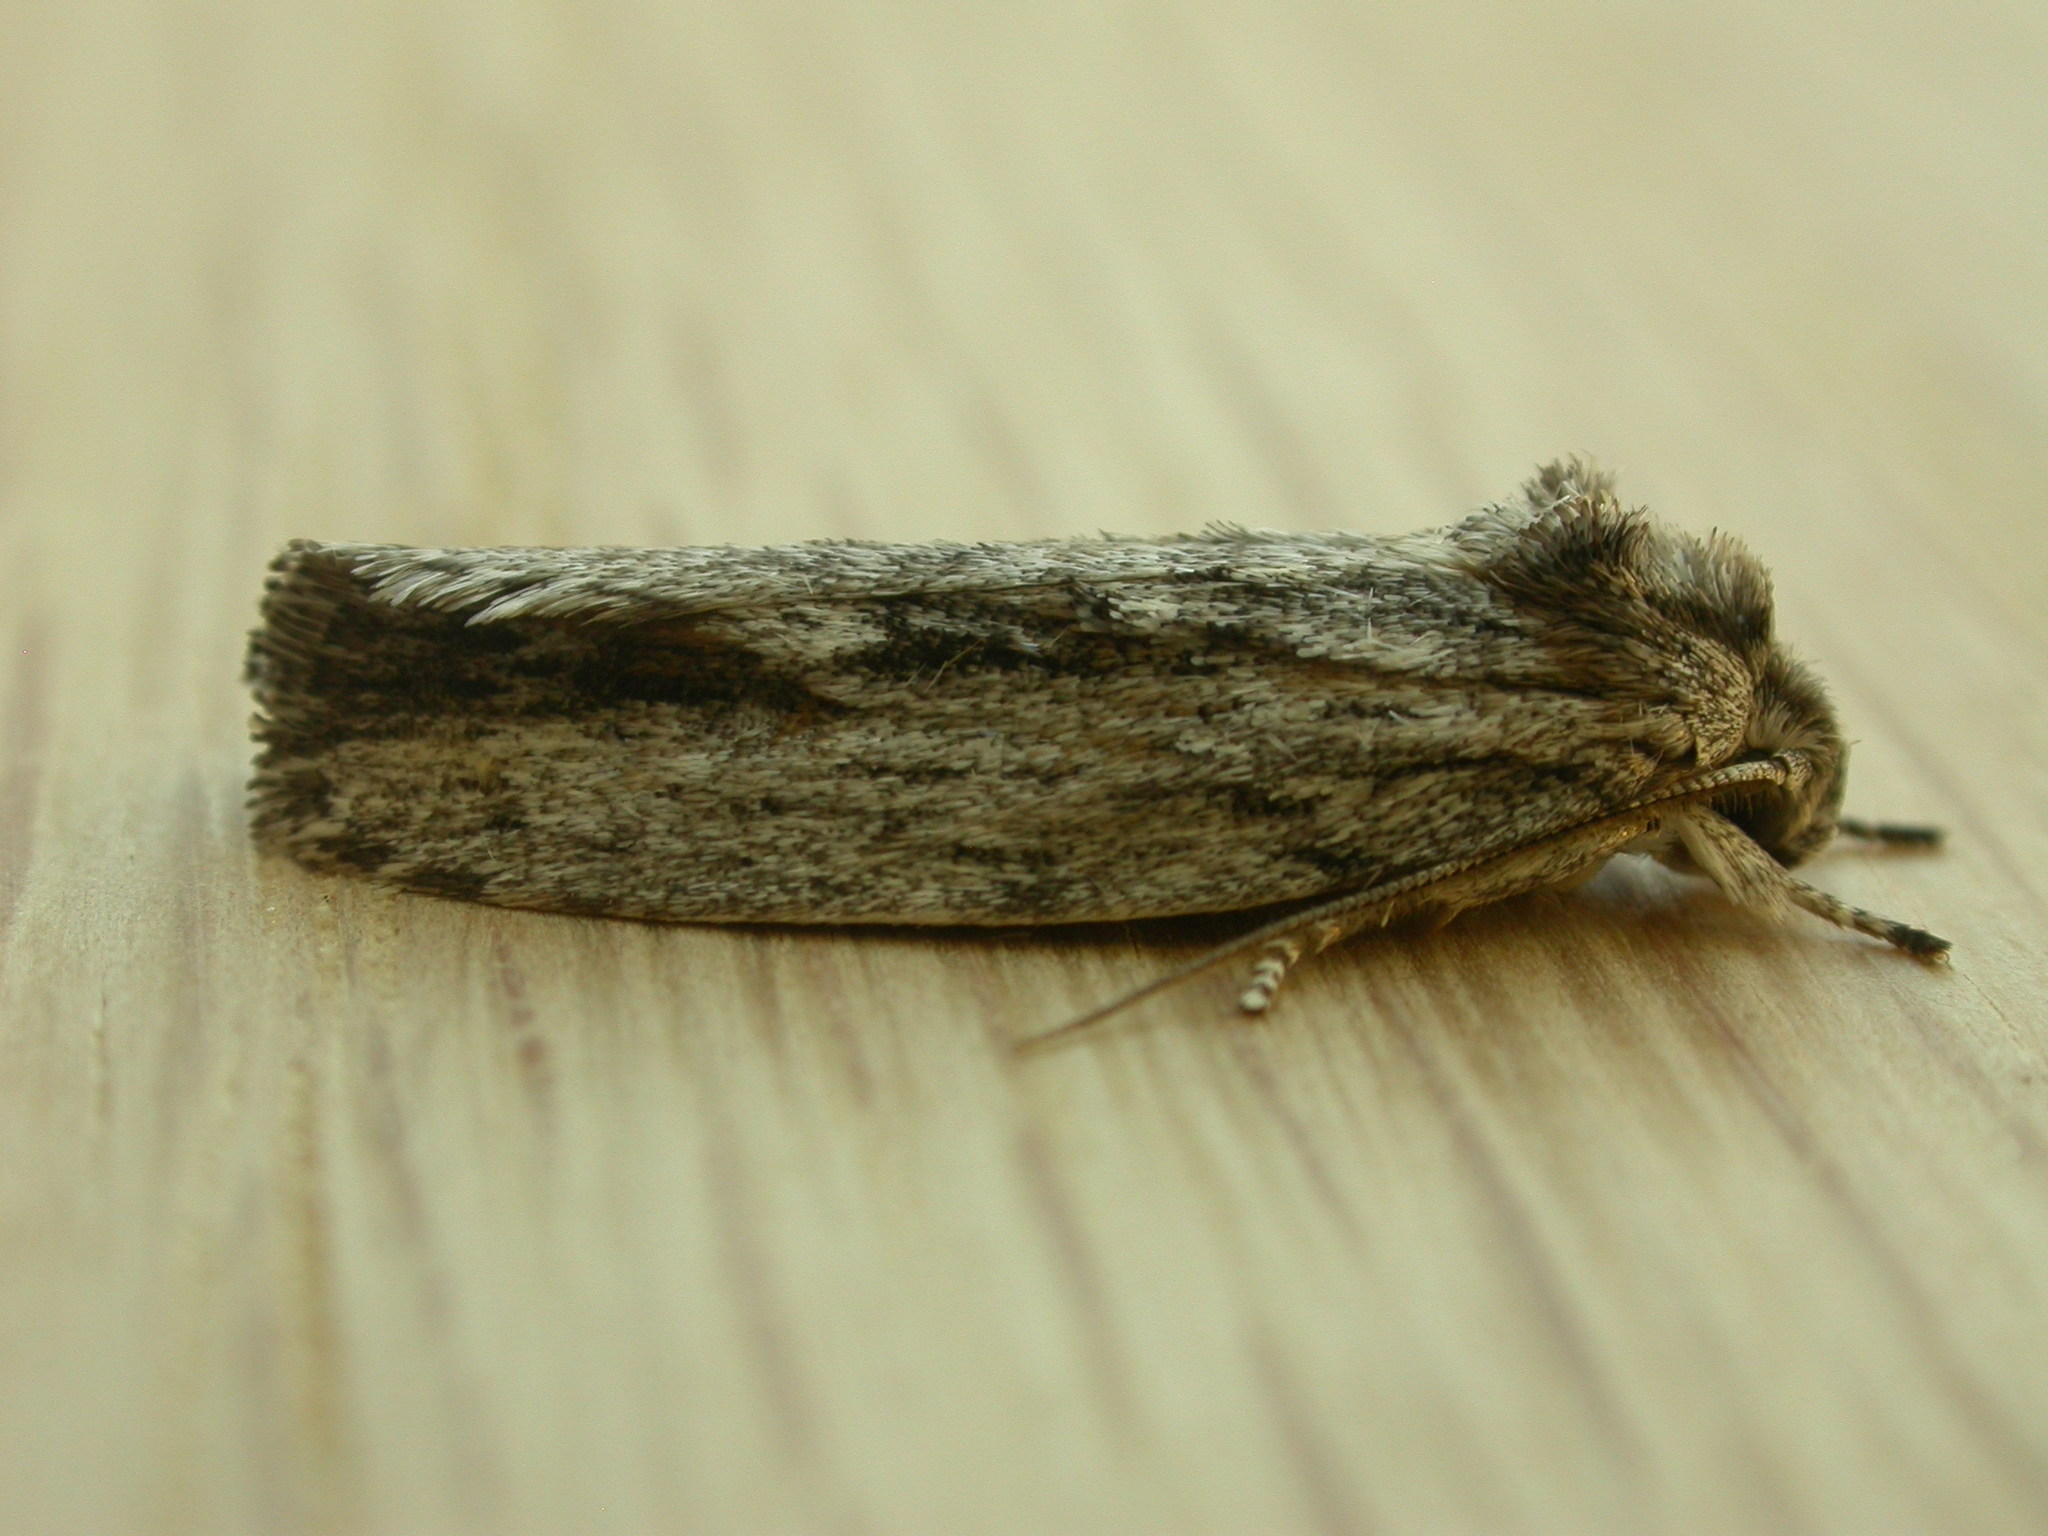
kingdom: Animalia
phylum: Arthropoda
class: Insecta
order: Lepidoptera
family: Depressariidae
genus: Agriophara
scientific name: Agriophara platyscia
